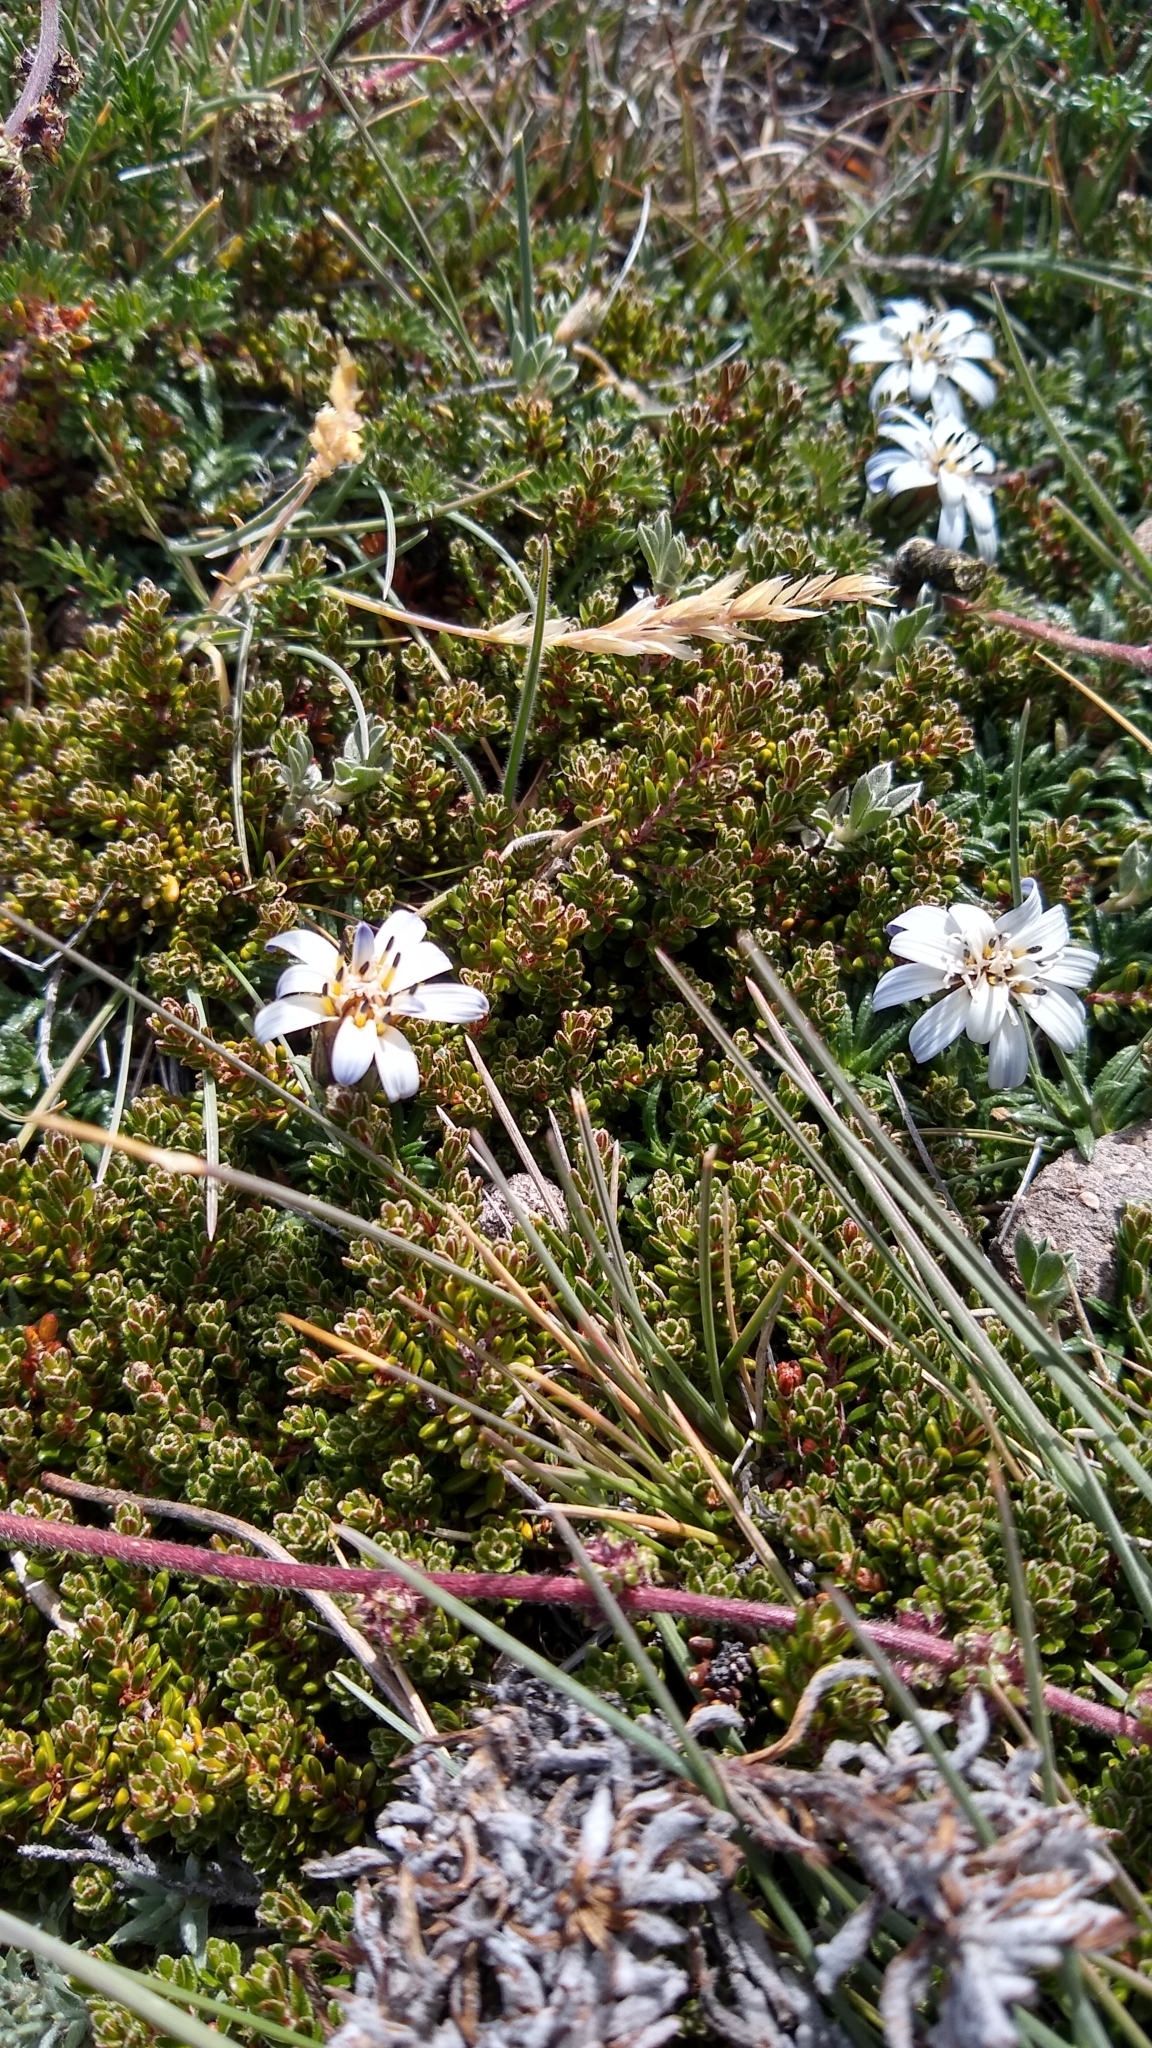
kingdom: Plantae
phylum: Tracheophyta
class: Magnoliopsida
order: Asterales
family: Asteraceae
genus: Perezia
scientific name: Perezia recurvata
